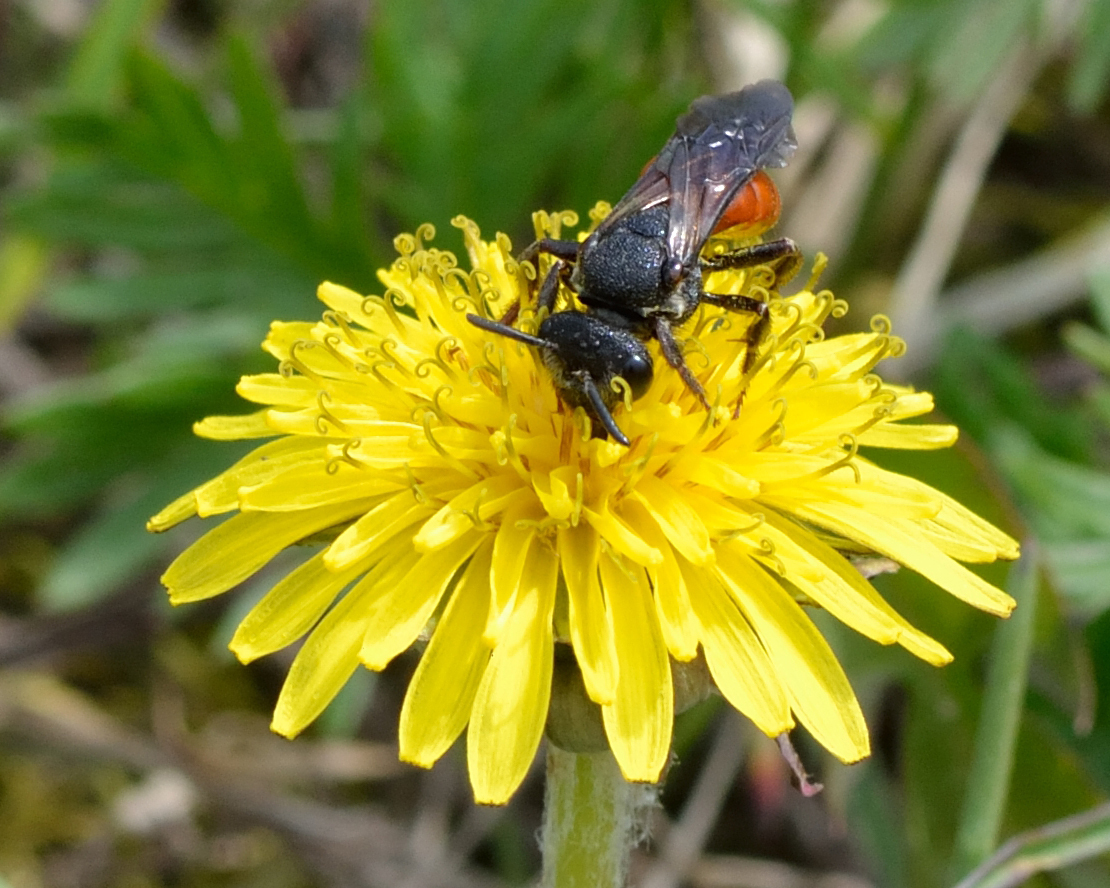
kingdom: Animalia
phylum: Arthropoda
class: Insecta
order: Hymenoptera
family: Halictidae
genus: Sphecodes
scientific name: Sphecodes albilabris
